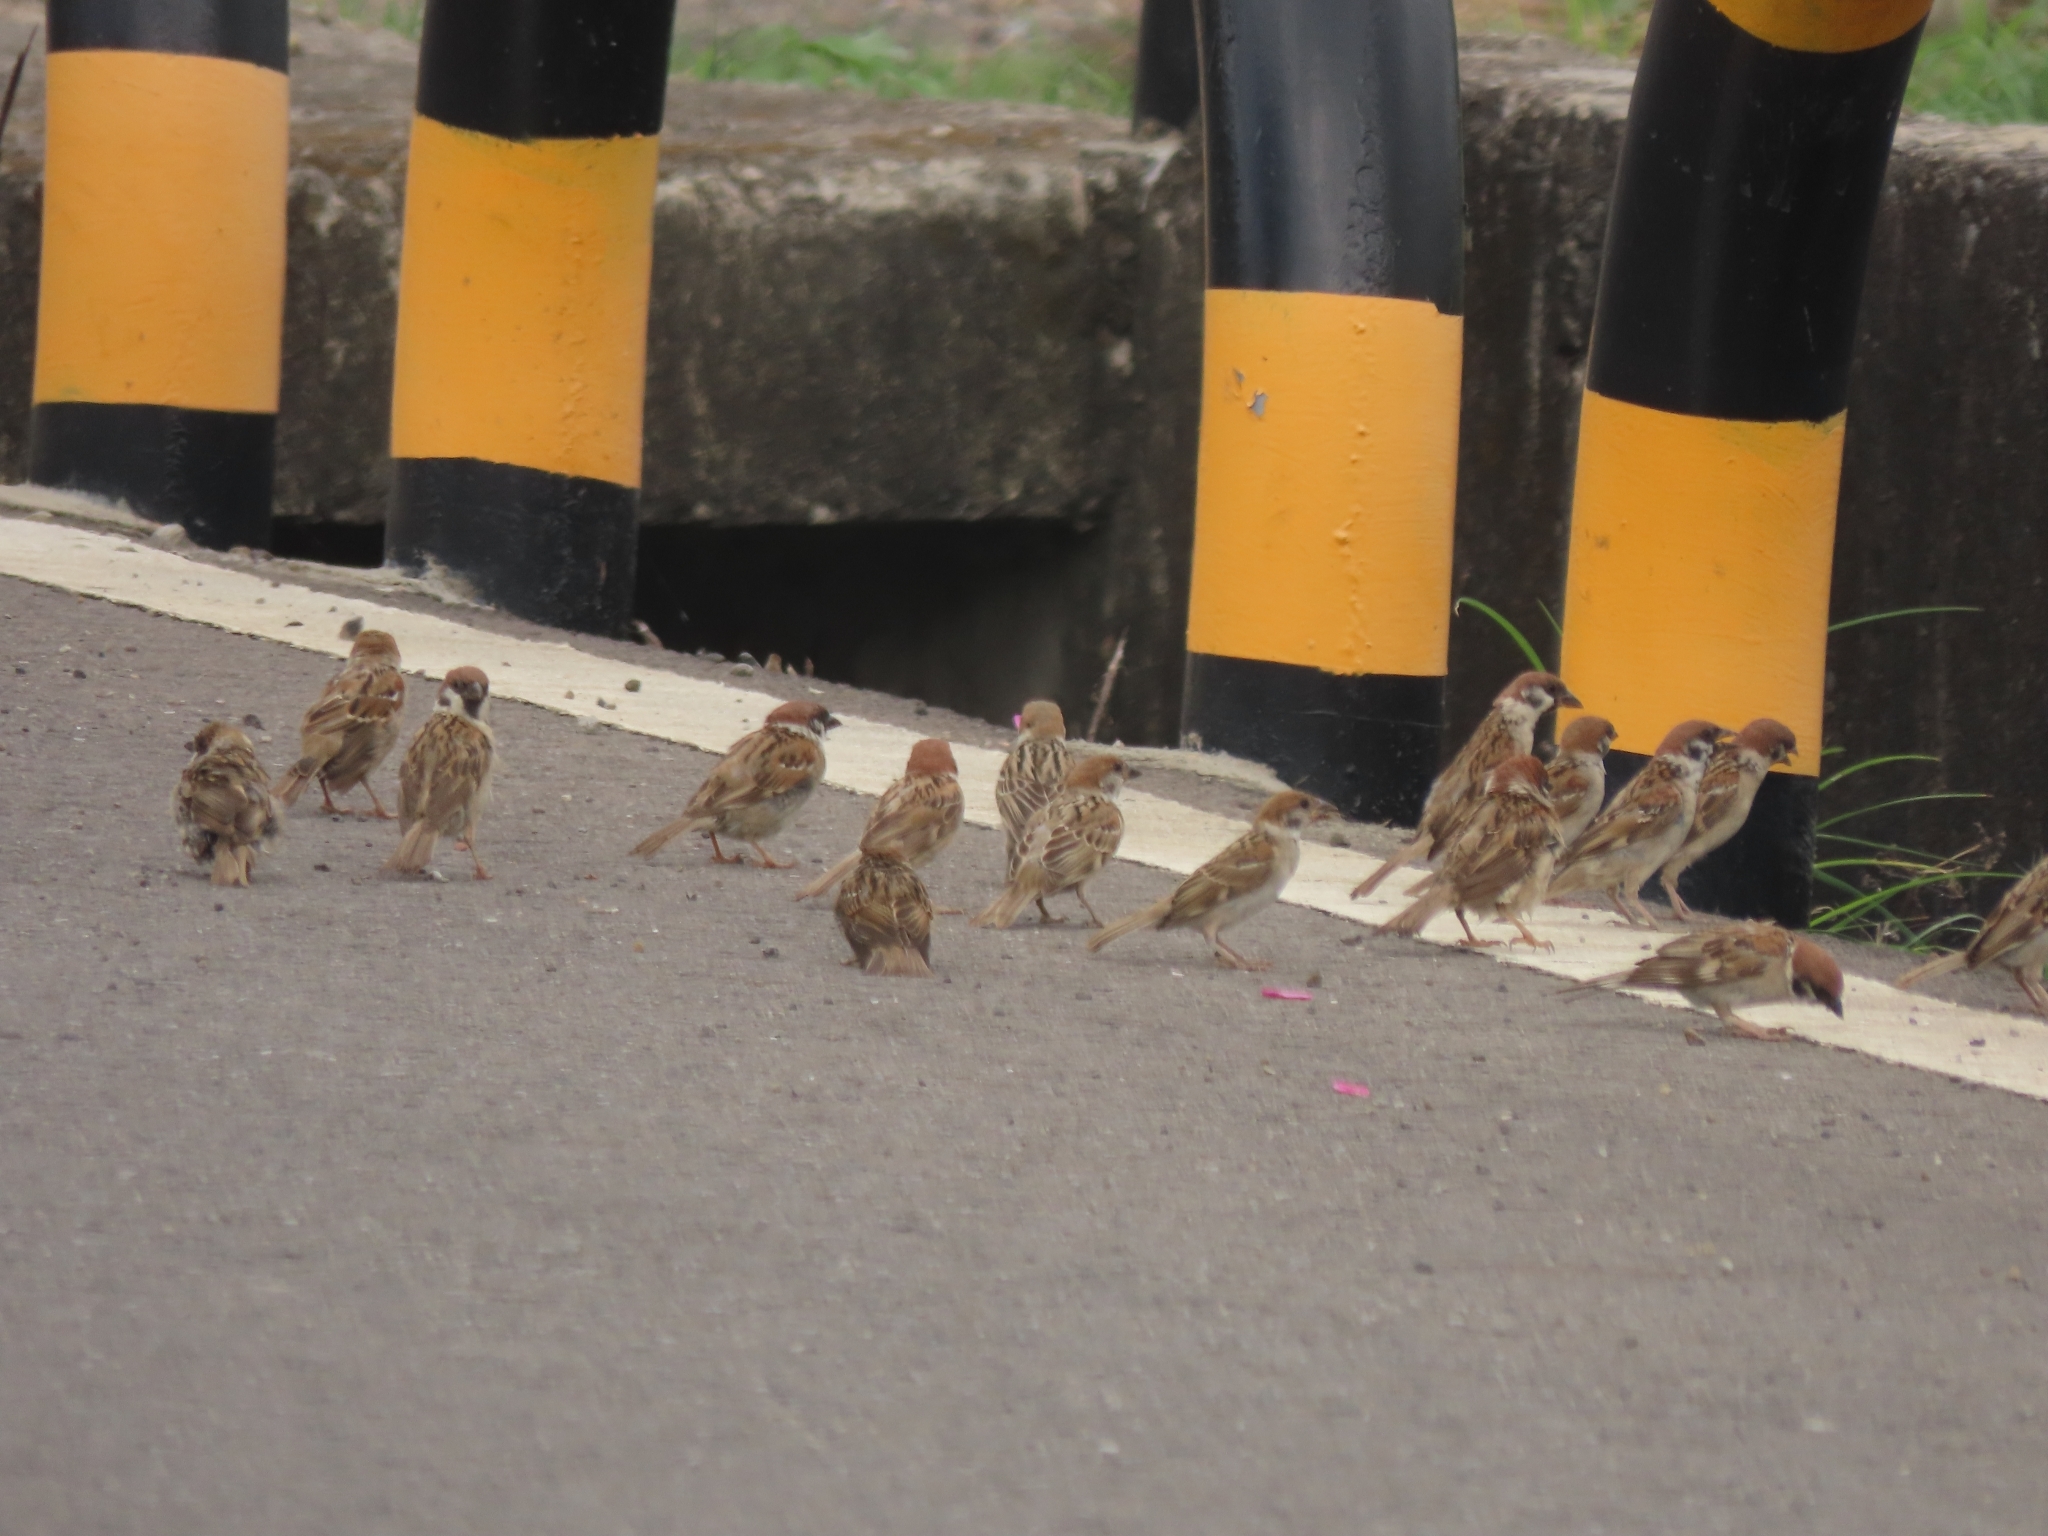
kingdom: Animalia
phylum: Chordata
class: Aves
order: Passeriformes
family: Passeridae
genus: Passer
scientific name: Passer montanus
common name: Eurasian tree sparrow
